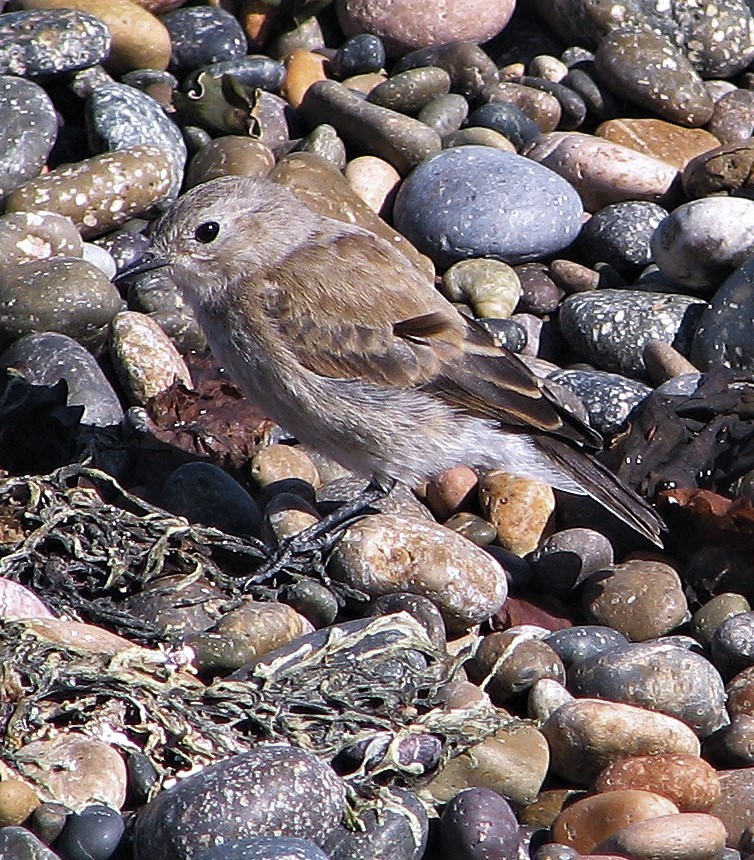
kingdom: Animalia
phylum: Chordata
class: Aves
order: Passeriformes
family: Tyrannidae
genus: Lessonia
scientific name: Lessonia rufa
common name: Austral negrito
